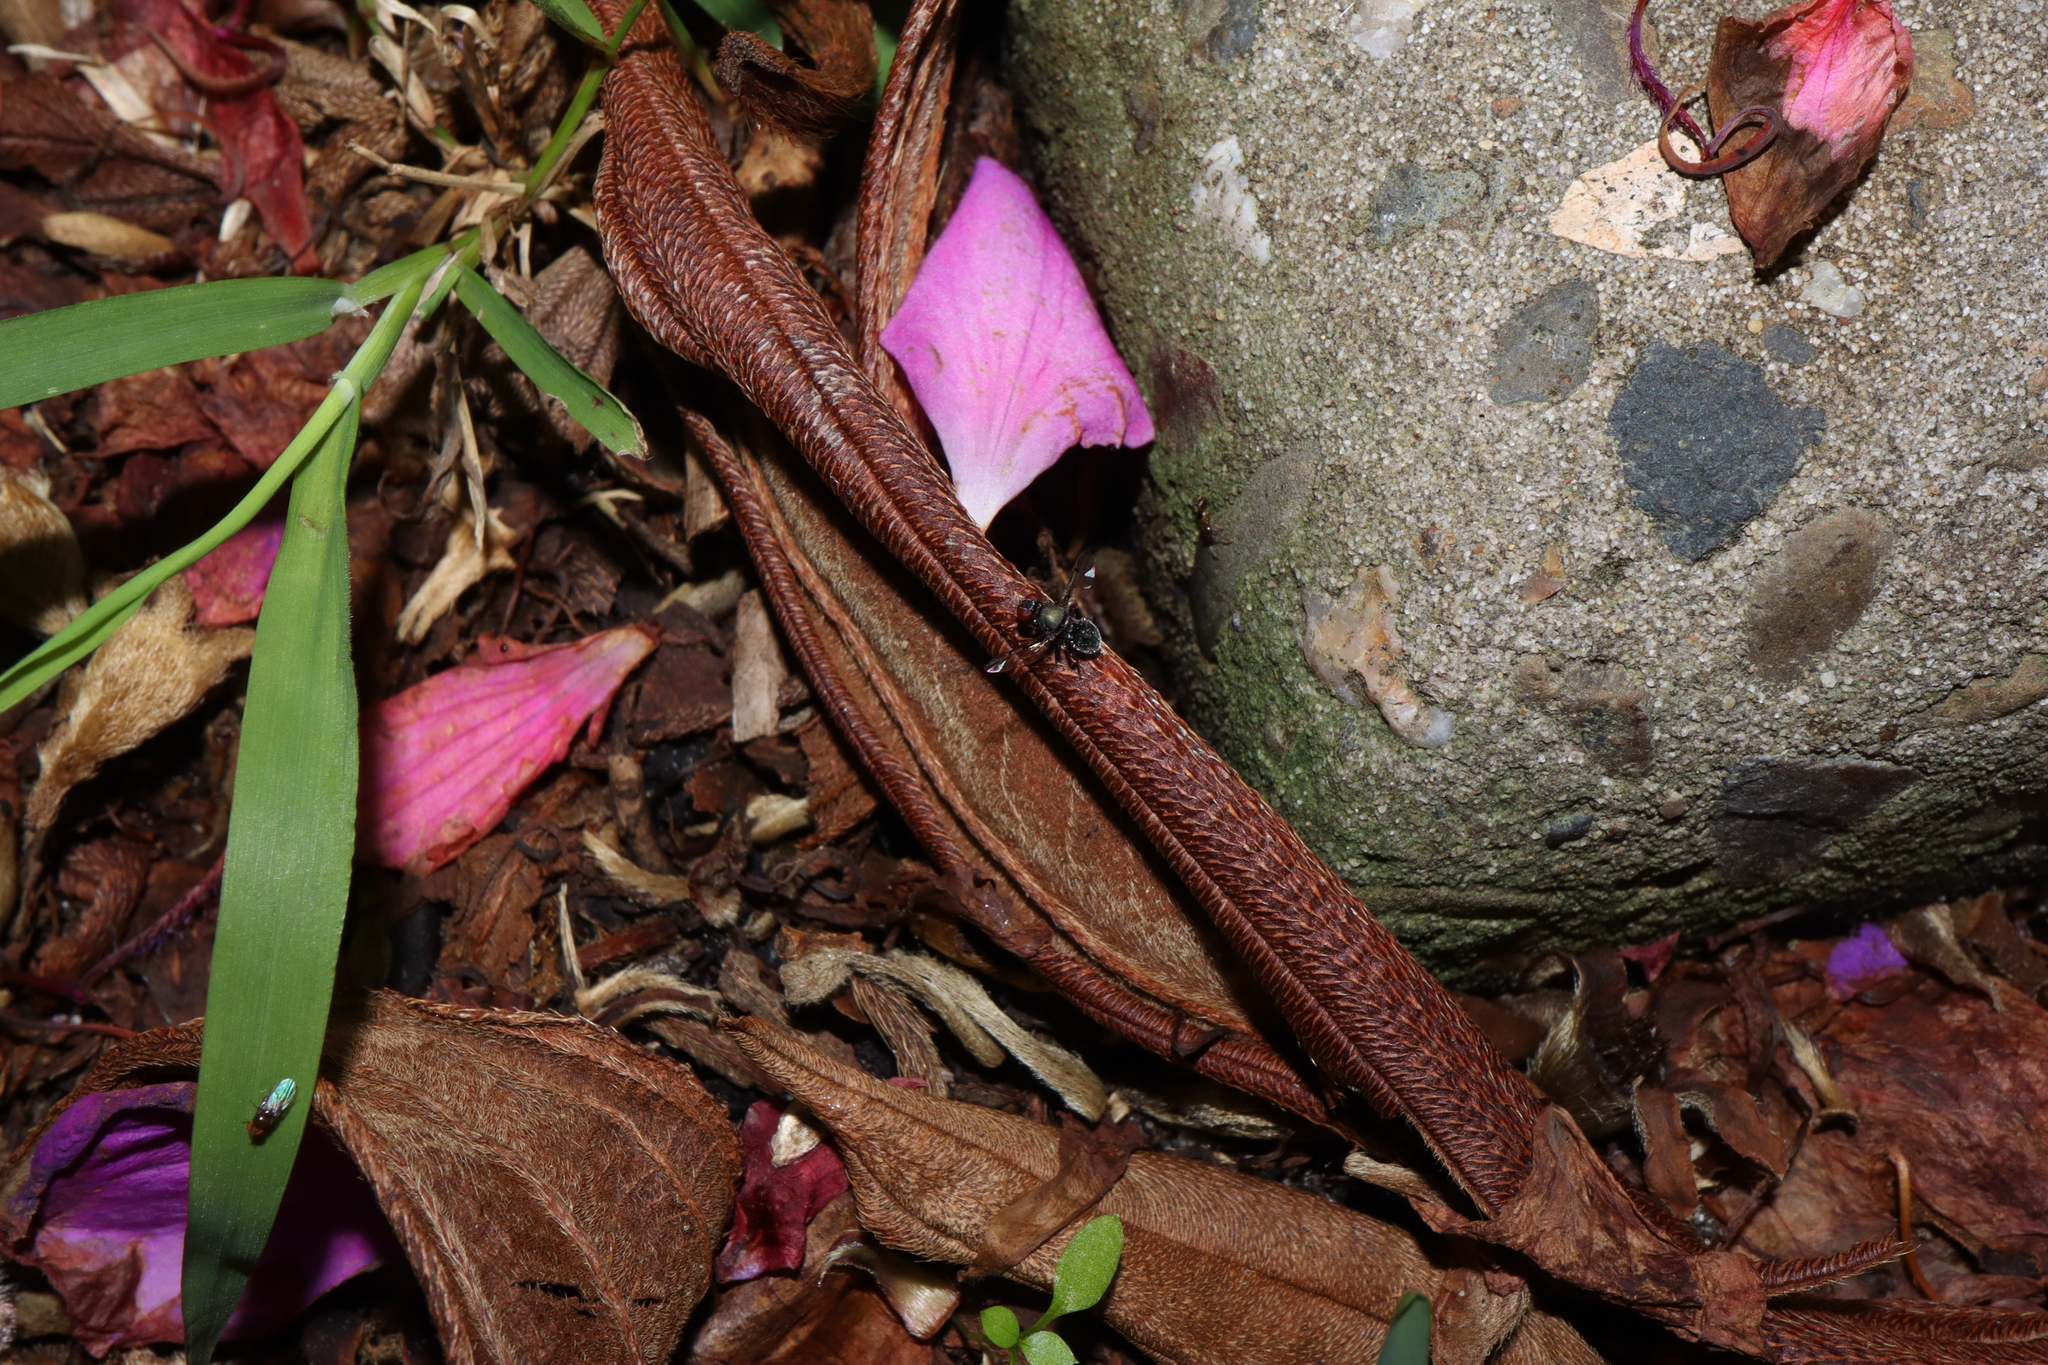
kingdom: Animalia
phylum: Arthropoda
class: Insecta
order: Diptera
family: Platystomatidae
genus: Pogonortalis
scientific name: Pogonortalis doclea
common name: Boatman fly
